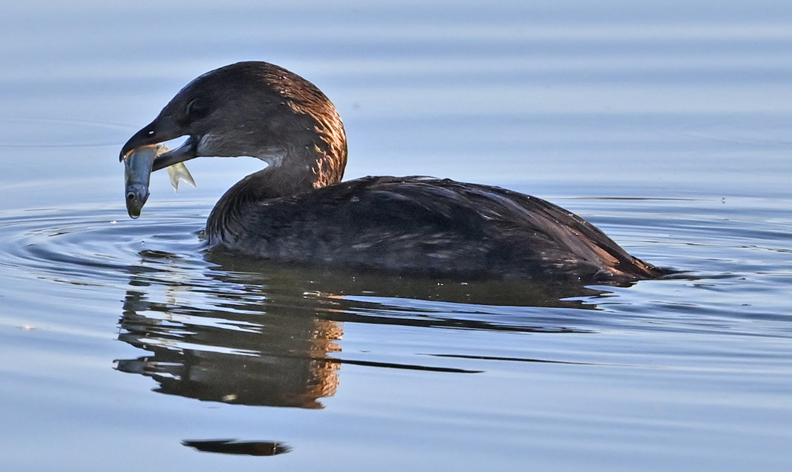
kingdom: Animalia
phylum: Chordata
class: Aves
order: Podicipediformes
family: Podicipedidae
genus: Podilymbus
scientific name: Podilymbus podiceps
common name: Pied-billed grebe
